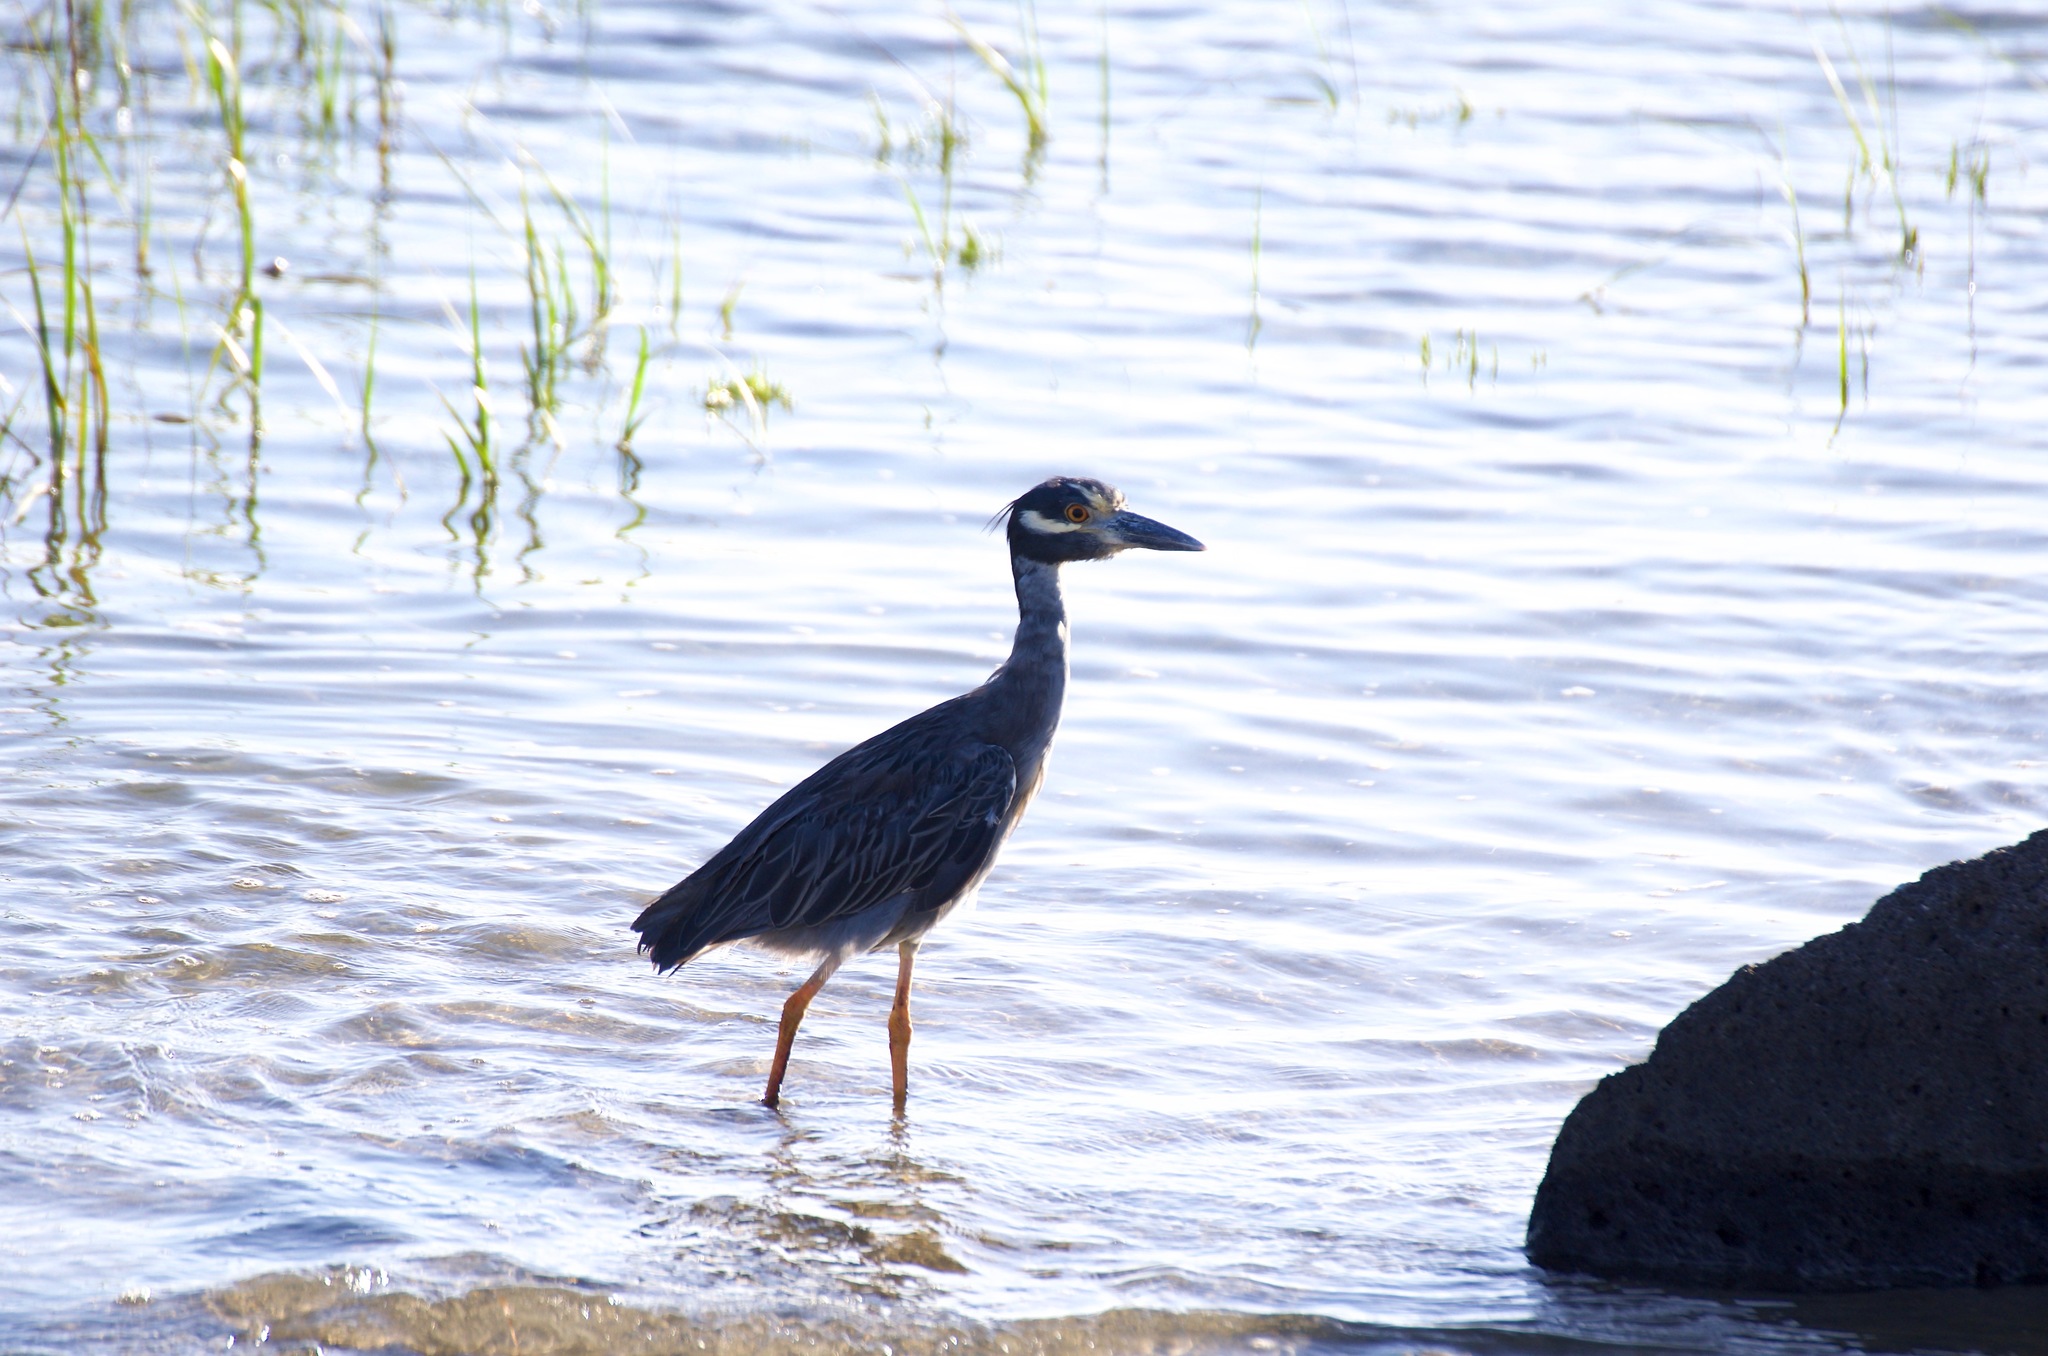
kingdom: Animalia
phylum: Chordata
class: Aves
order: Pelecaniformes
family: Ardeidae
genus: Nyctanassa
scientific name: Nyctanassa violacea
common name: Yellow-crowned night heron
